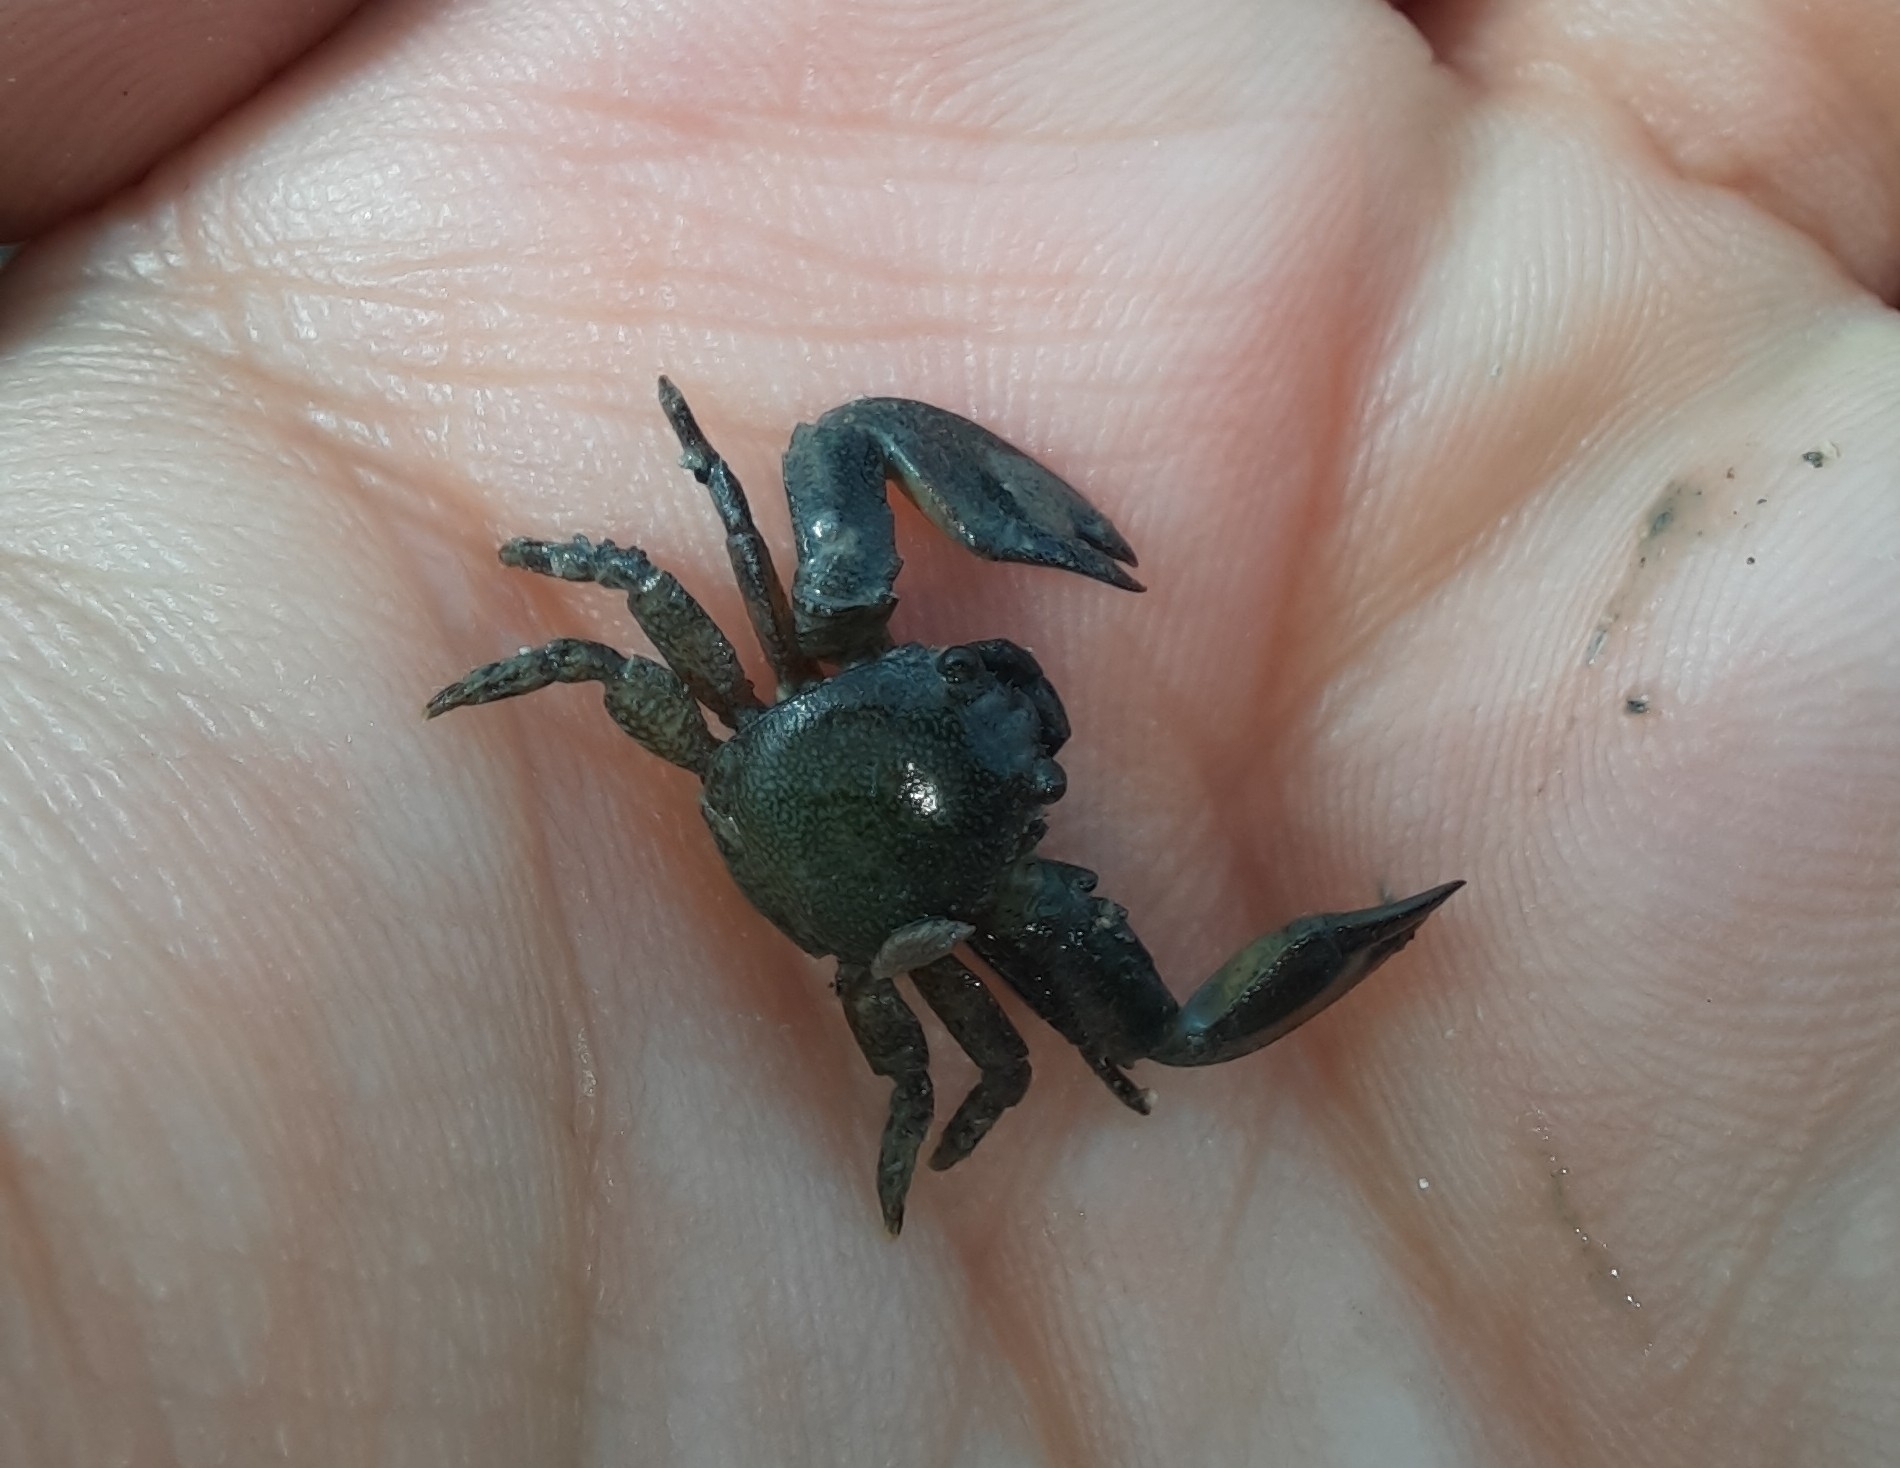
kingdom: Animalia
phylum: Arthropoda
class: Malacostraca
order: Decapoda
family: Porcellanidae
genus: Petrolisthes
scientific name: Petrolisthes elongatus
